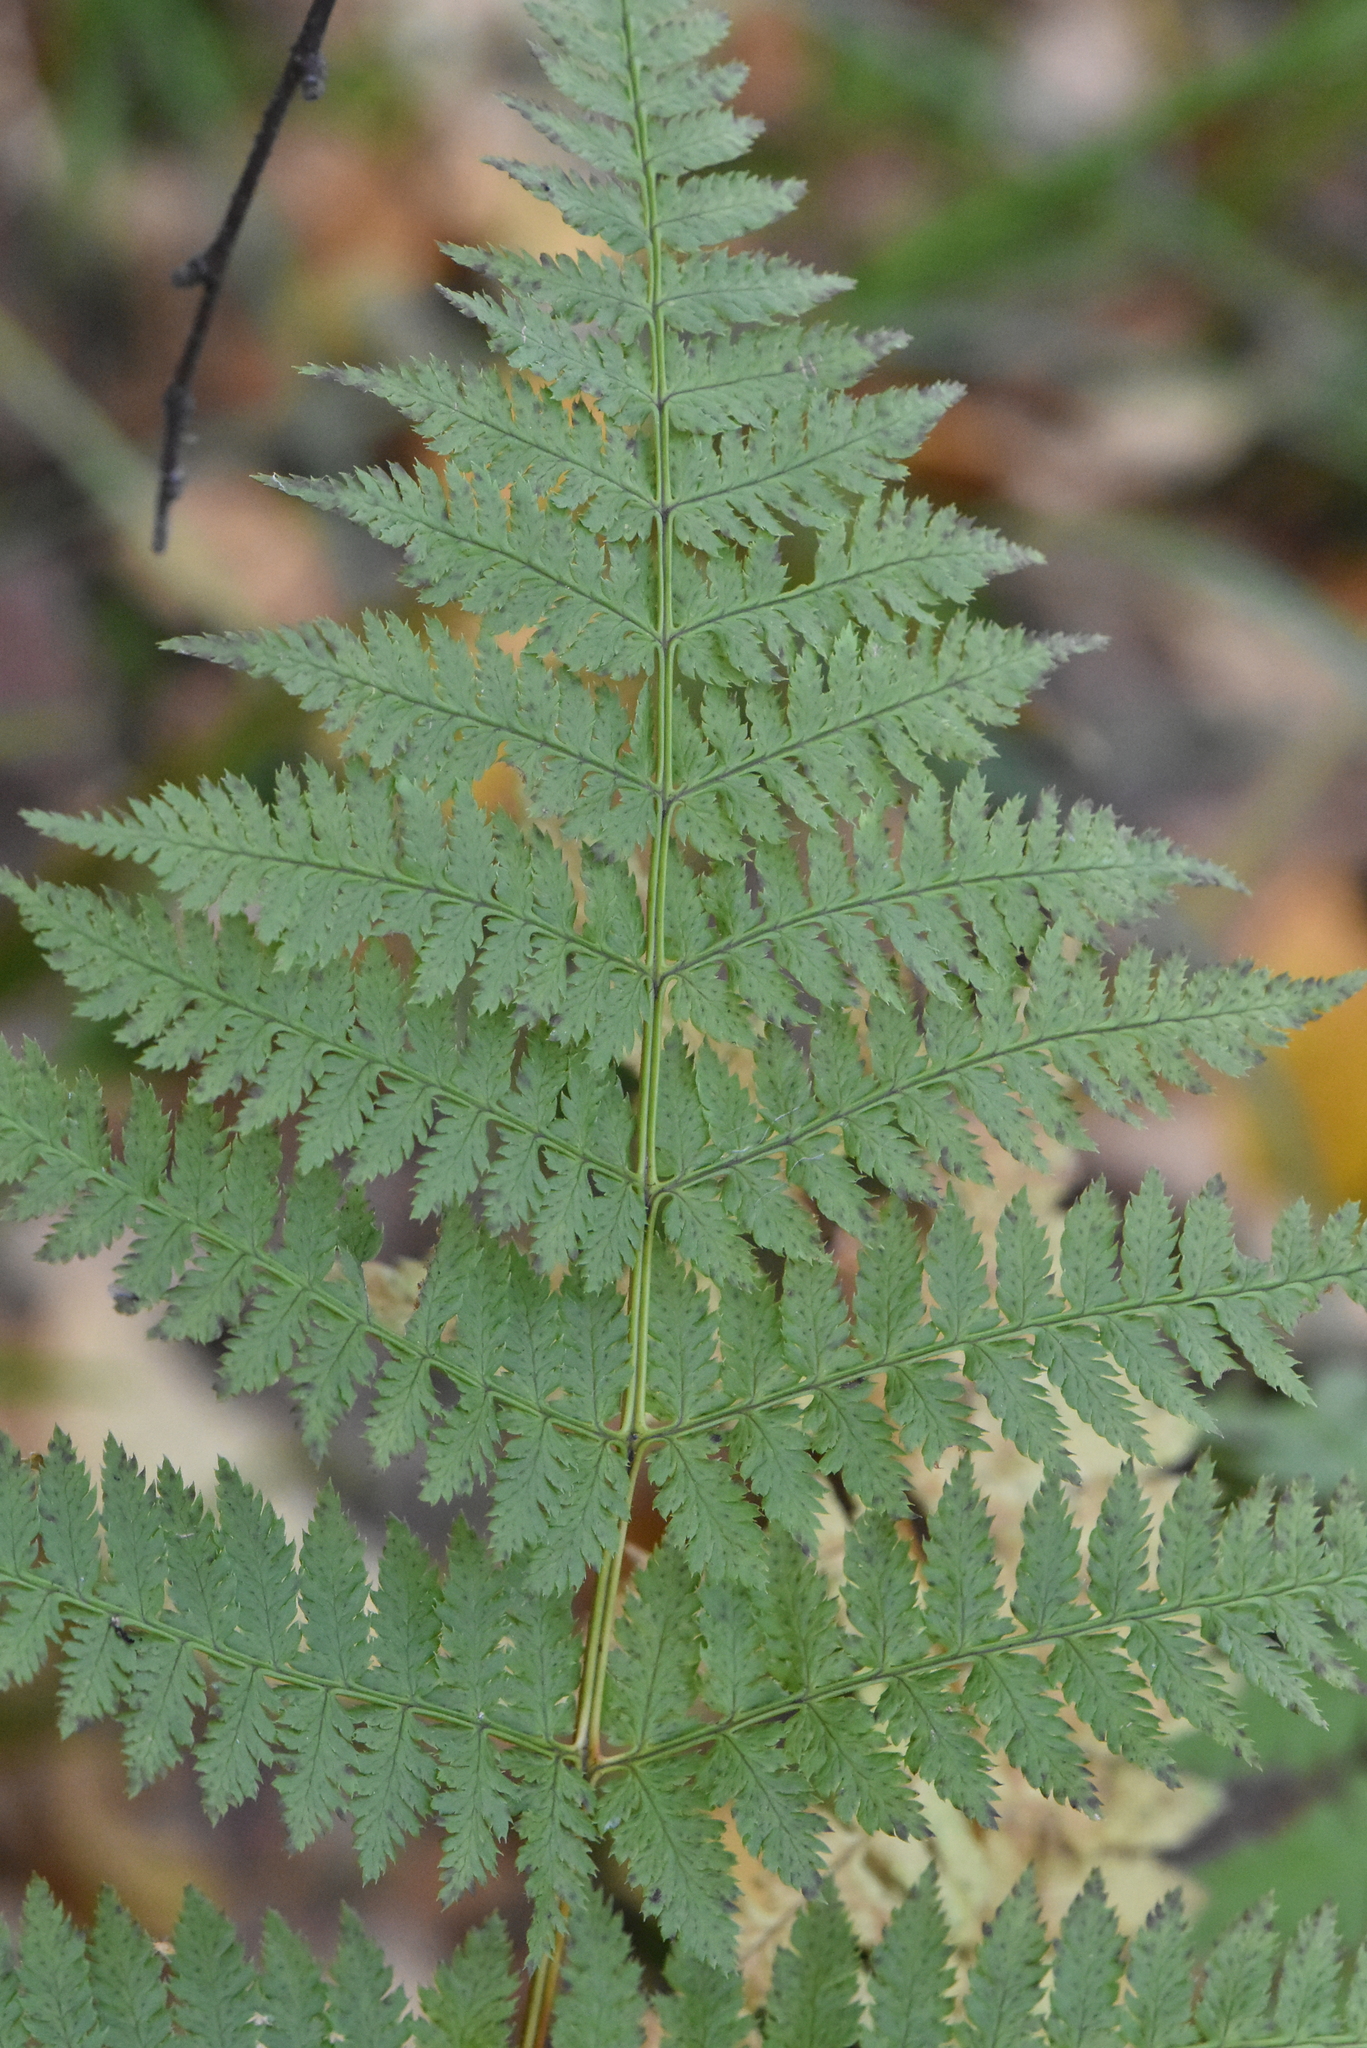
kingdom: Plantae
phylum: Tracheophyta
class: Polypodiopsida
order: Polypodiales
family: Dryopteridaceae
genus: Dryopteris
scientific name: Dryopteris carthusiana
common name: Narrow buckler-fern
